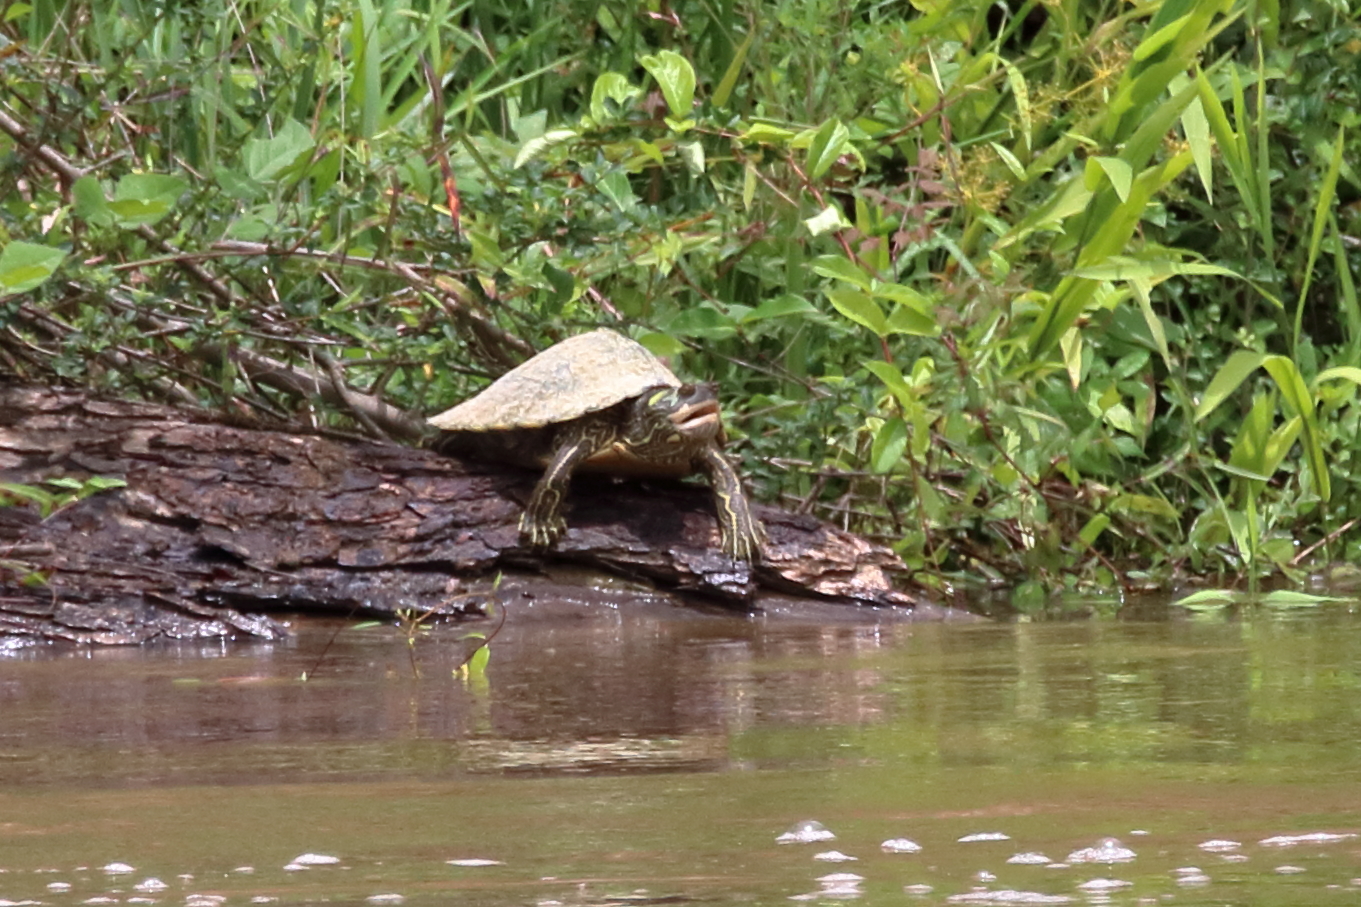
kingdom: Animalia
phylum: Chordata
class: Testudines
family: Emydidae
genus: Graptemys
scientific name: Graptemys pearlensis
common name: Pearl river map turtle
